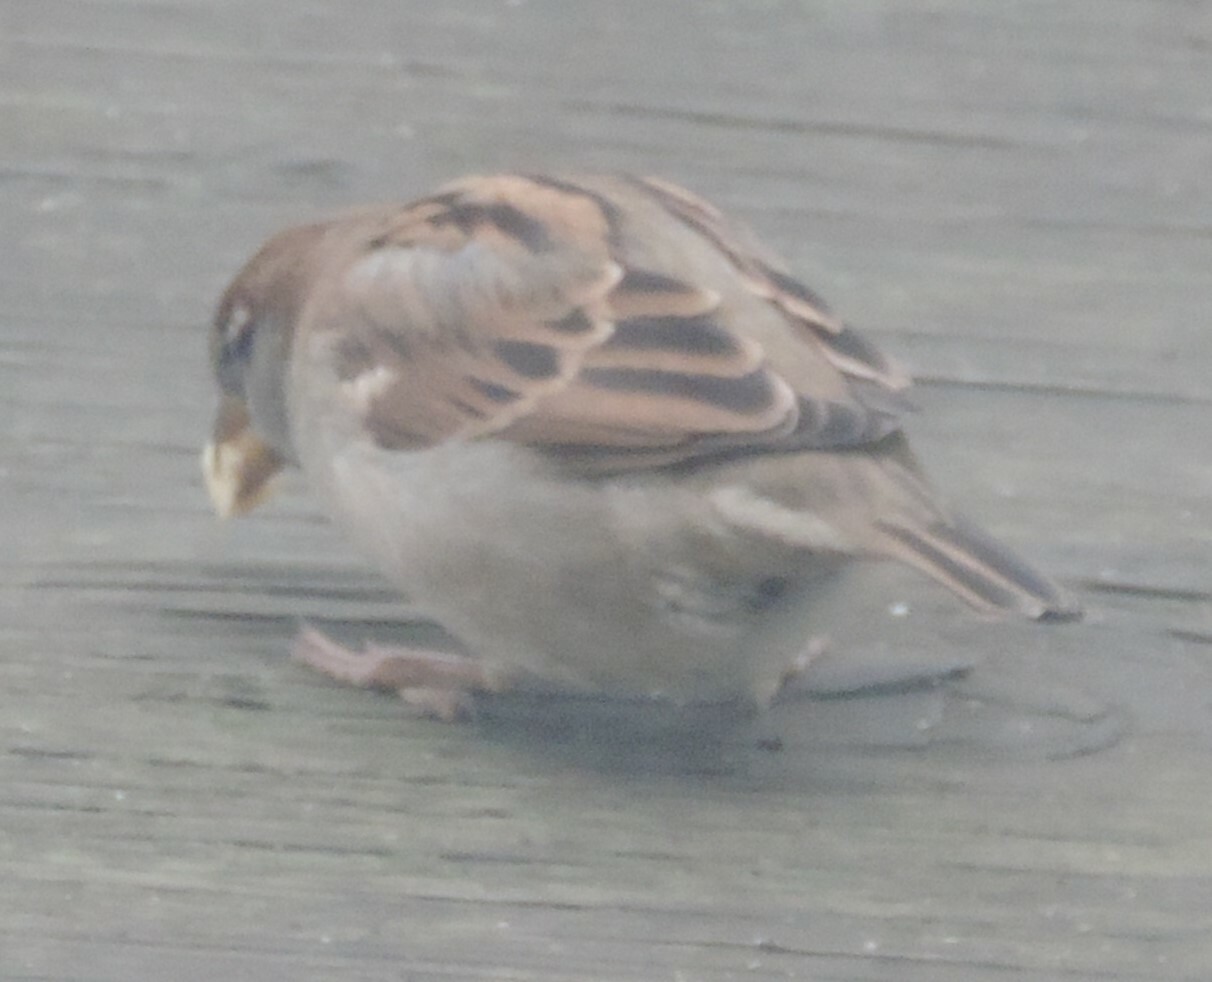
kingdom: Animalia
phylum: Chordata
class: Aves
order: Passeriformes
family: Passeridae
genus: Passer
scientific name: Passer domesticus
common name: House sparrow
